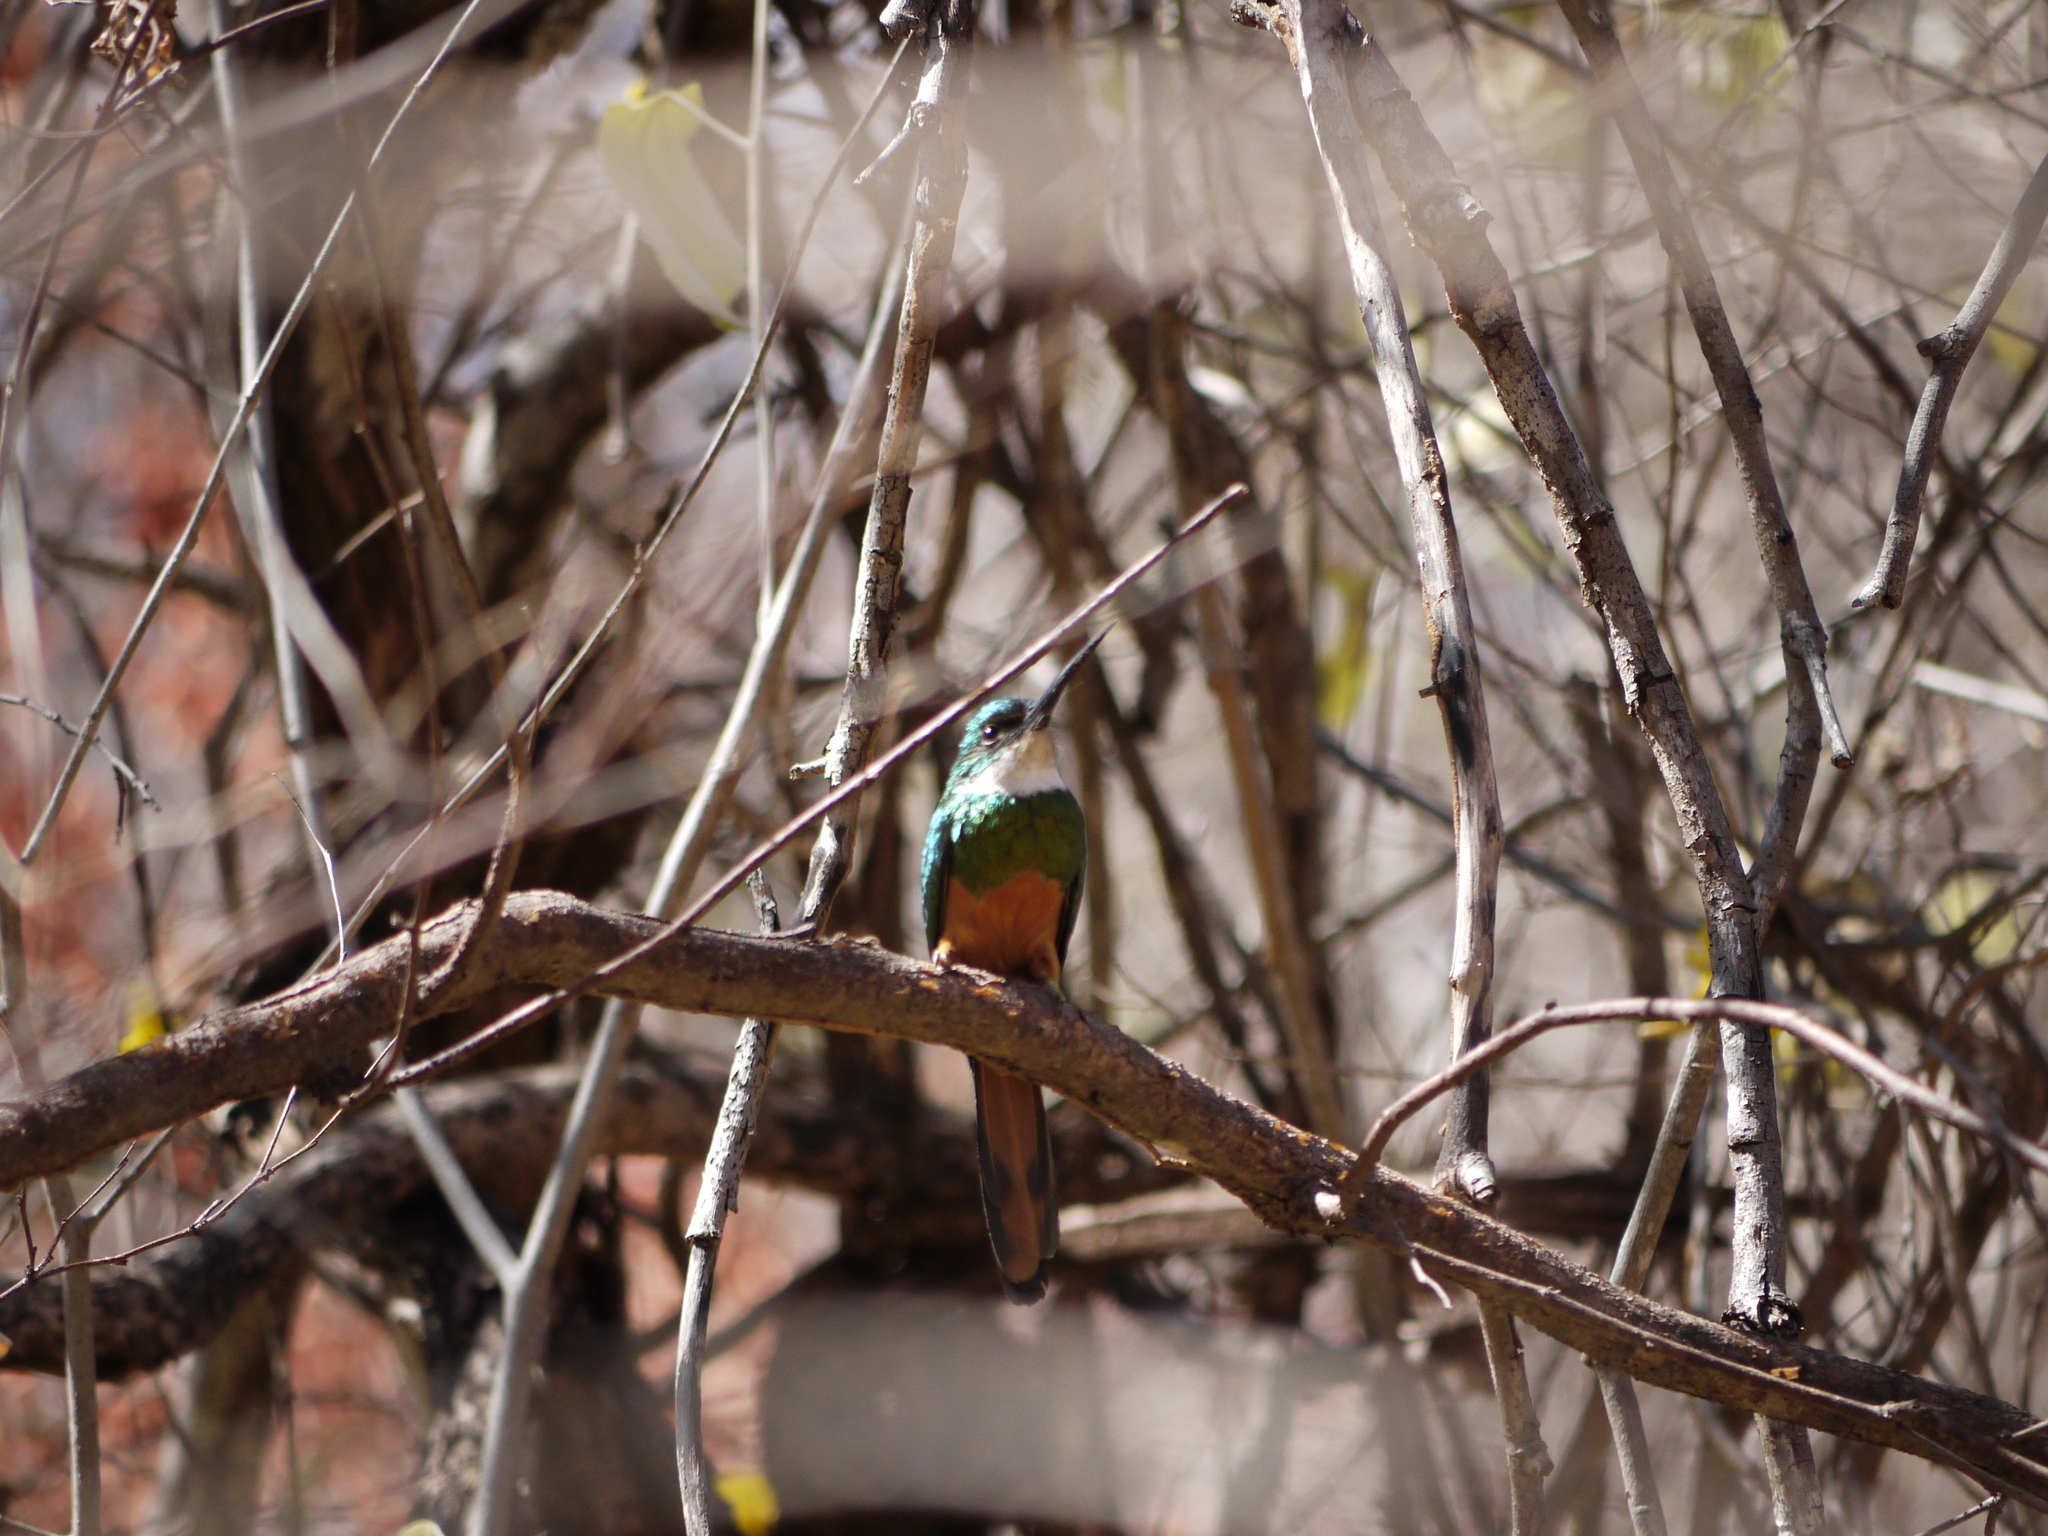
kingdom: Animalia
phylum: Chordata
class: Aves
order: Piciformes
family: Galbulidae
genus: Galbula
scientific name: Galbula ruficauda
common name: Rufous-tailed jacamar
